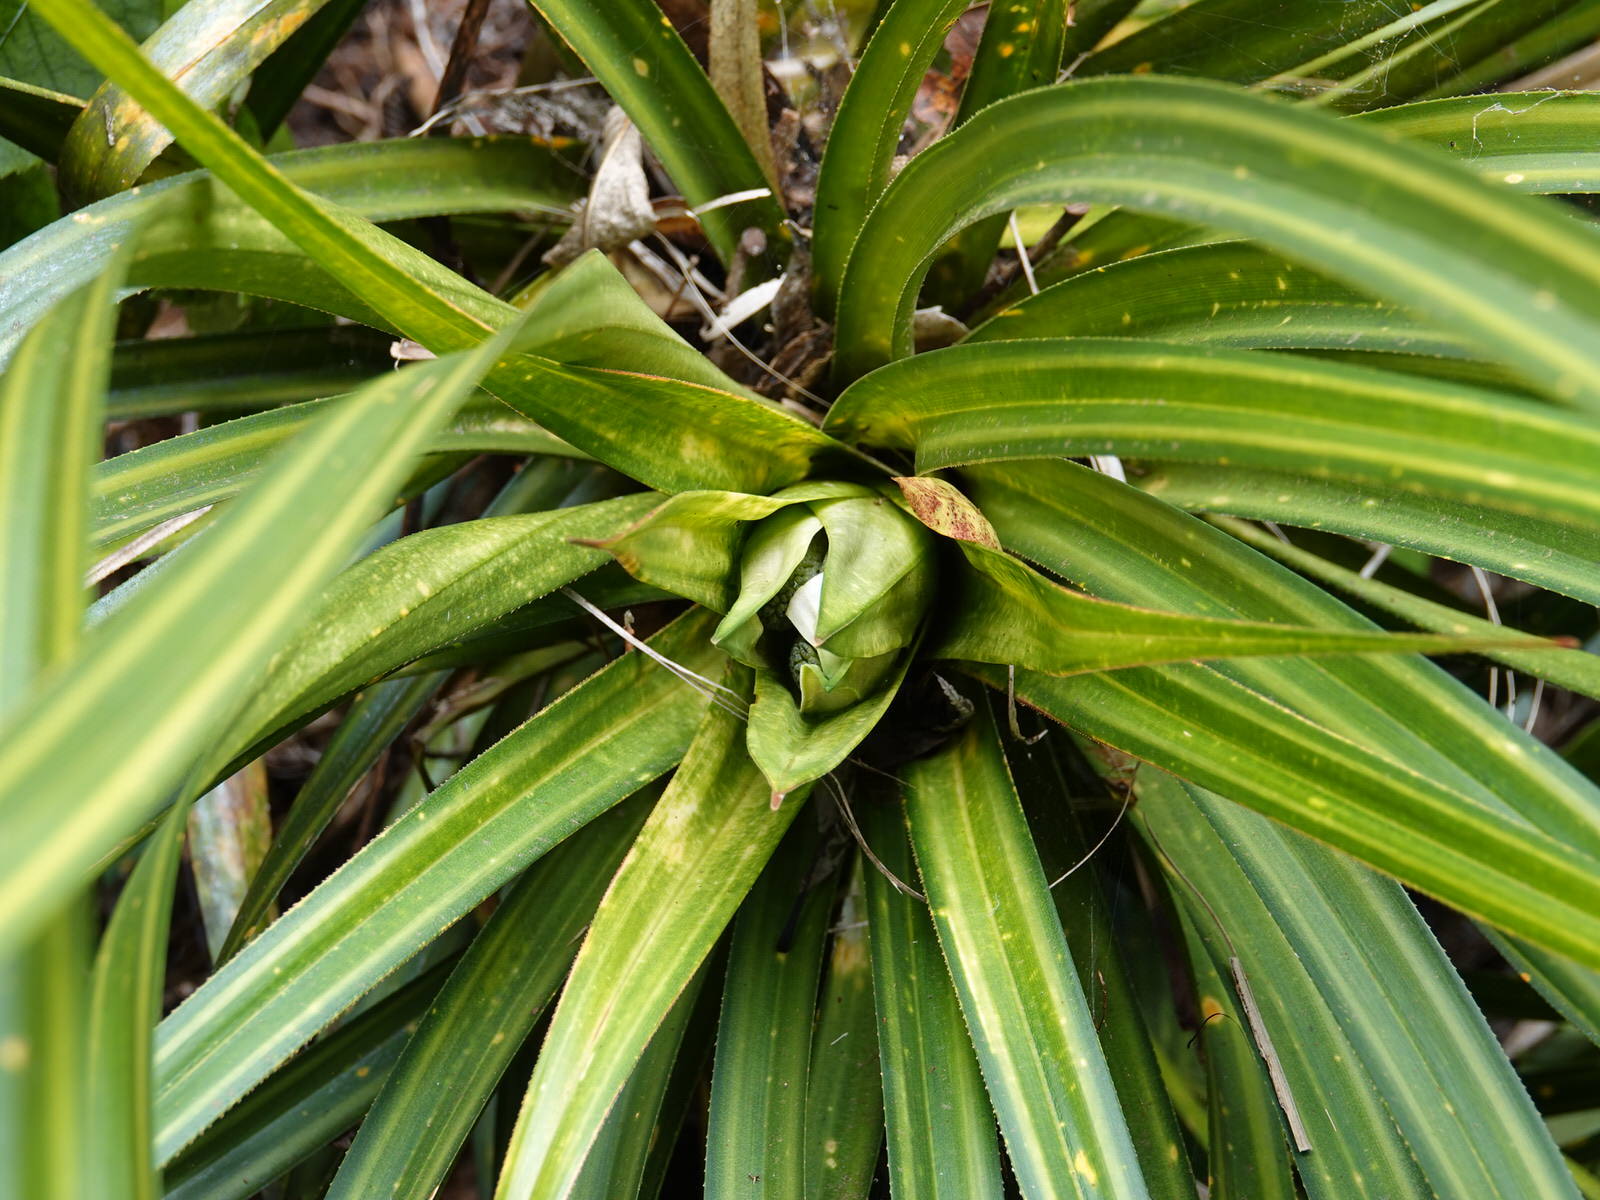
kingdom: Plantae
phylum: Tracheophyta
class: Liliopsida
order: Pandanales
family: Pandanaceae
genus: Freycinetia
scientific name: Freycinetia banksii
